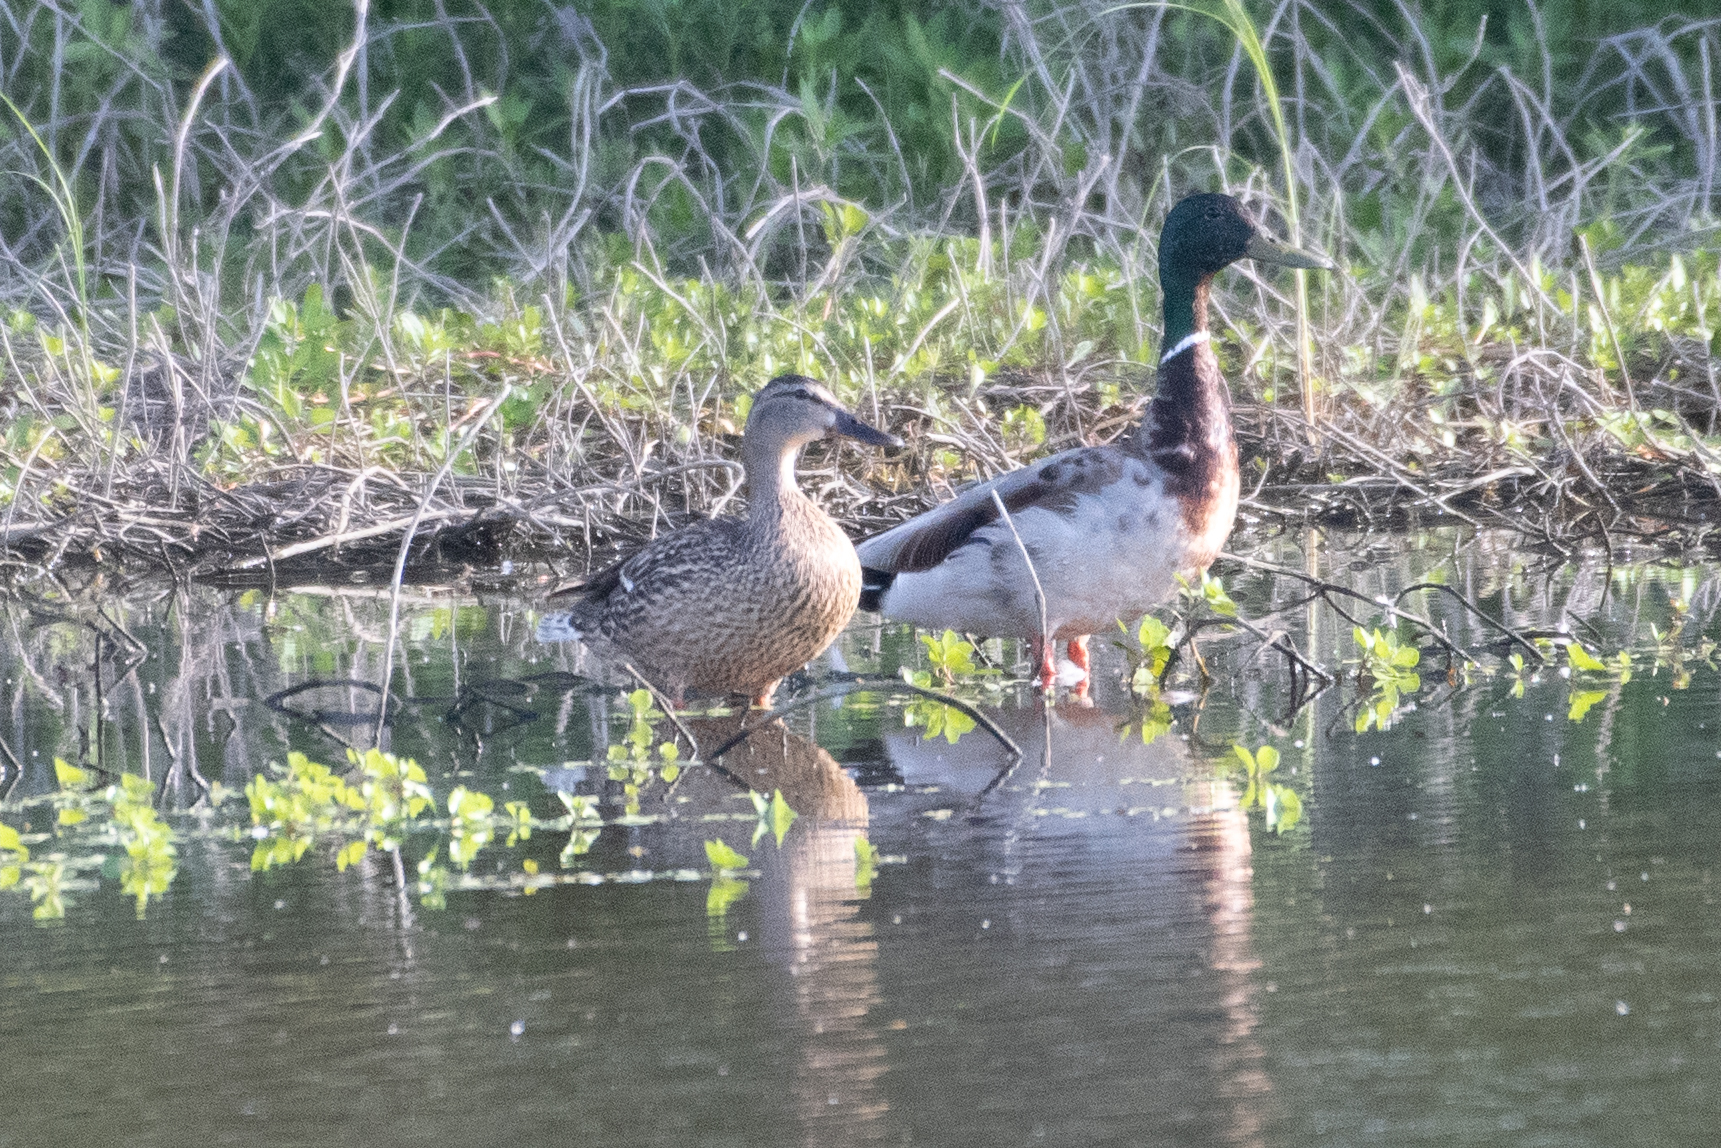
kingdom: Animalia
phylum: Chordata
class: Aves
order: Anseriformes
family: Anatidae
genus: Anas
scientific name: Anas platyrhynchos
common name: Mallard
